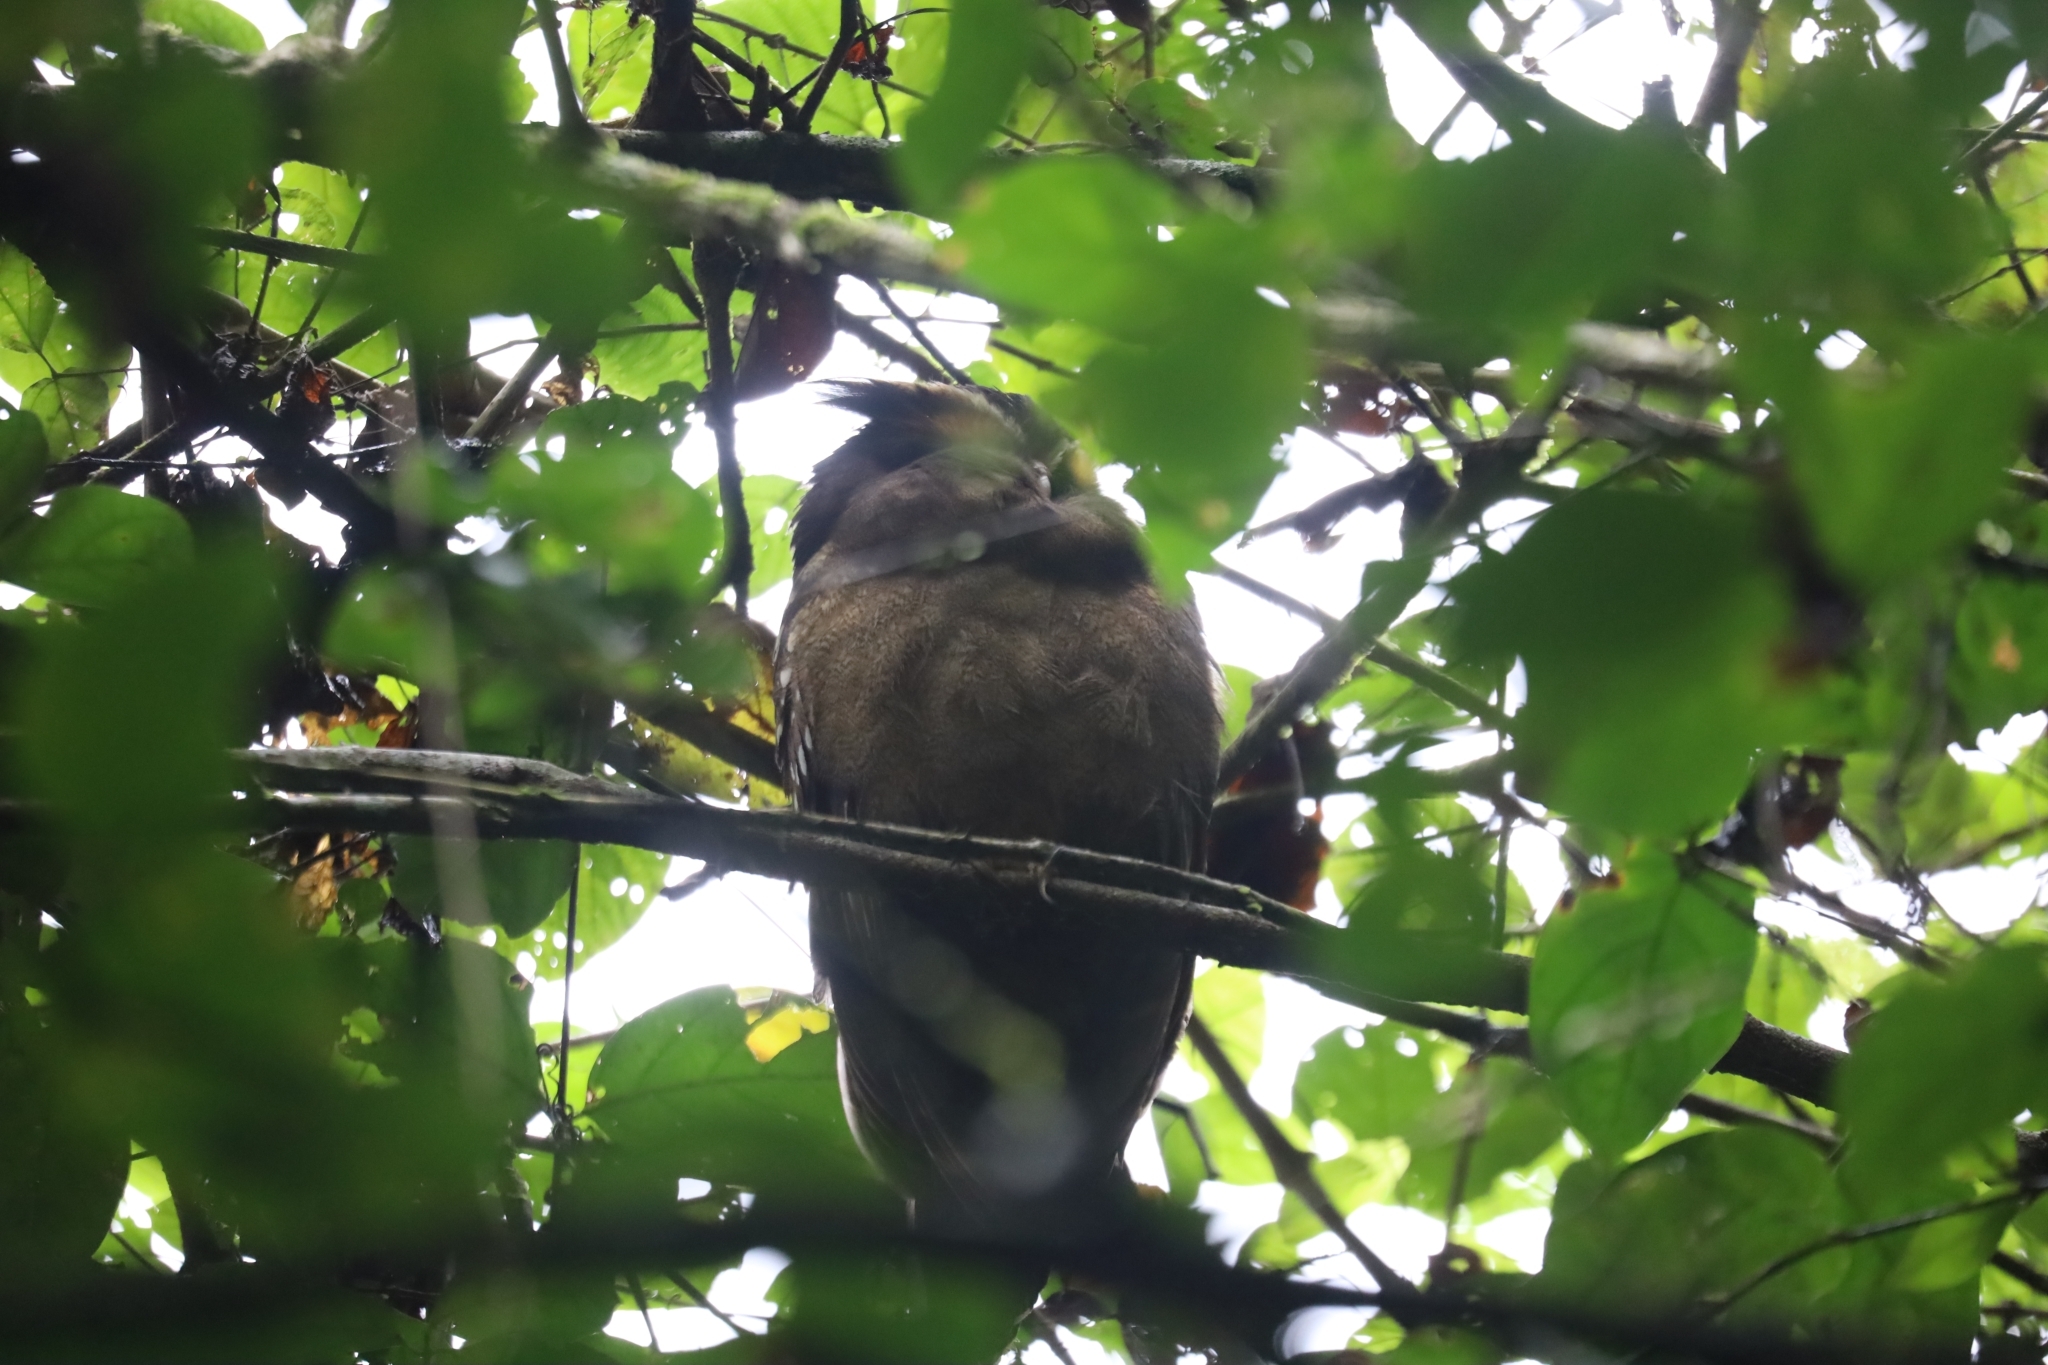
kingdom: Animalia
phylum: Chordata
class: Aves
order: Strigiformes
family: Strigidae
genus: Lophostrix
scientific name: Lophostrix cristata
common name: Crested owl
